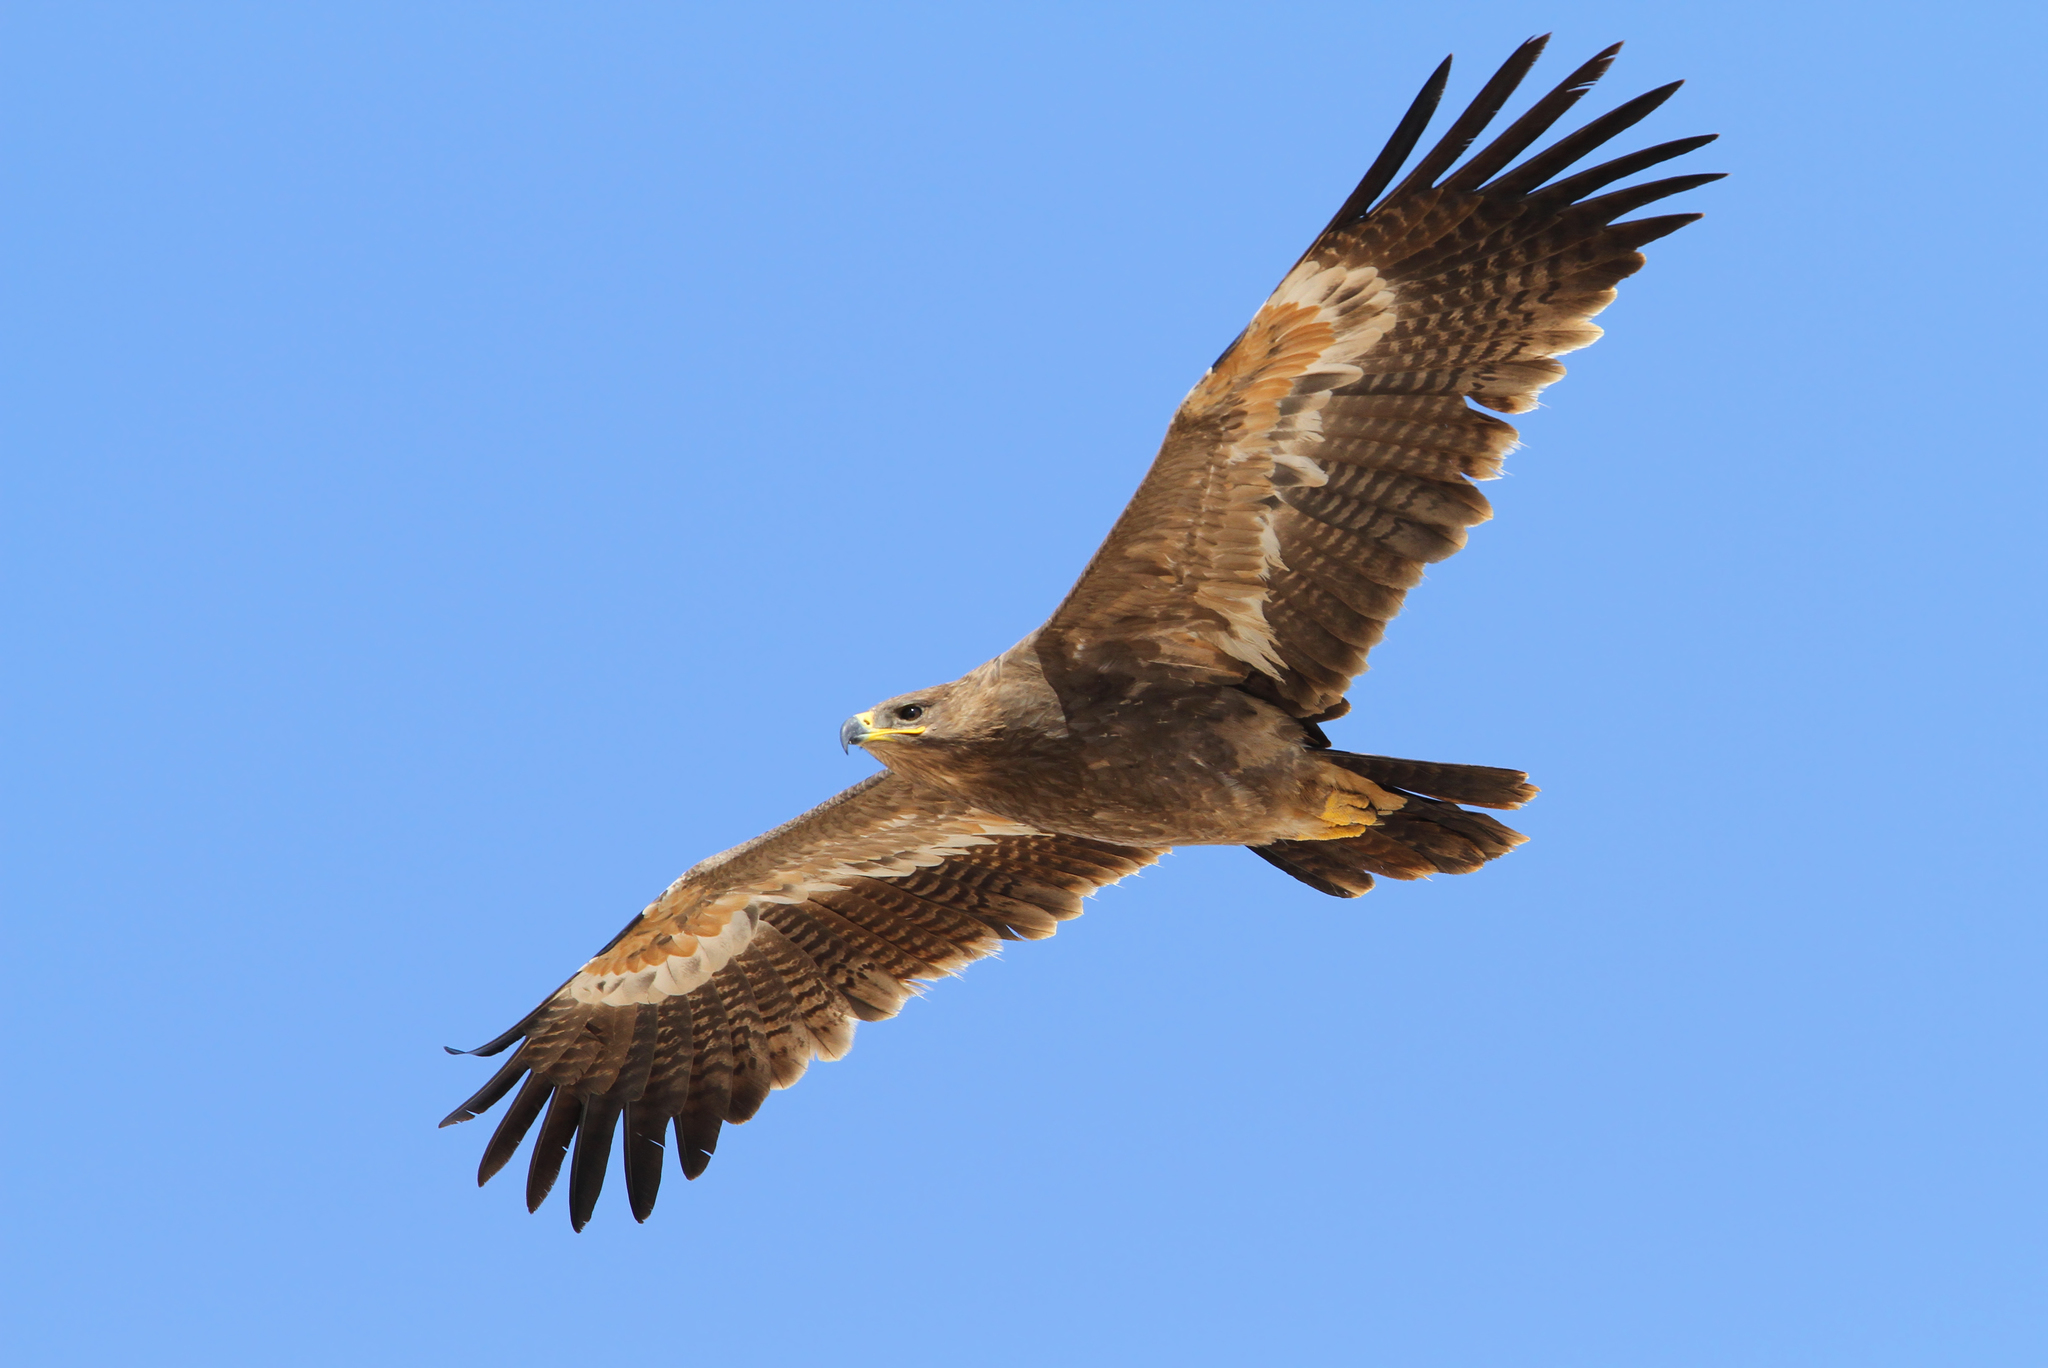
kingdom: Animalia
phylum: Chordata
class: Aves
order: Accipitriformes
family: Accipitridae
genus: Aquila
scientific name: Aquila nipalensis
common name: Steppe eagle
